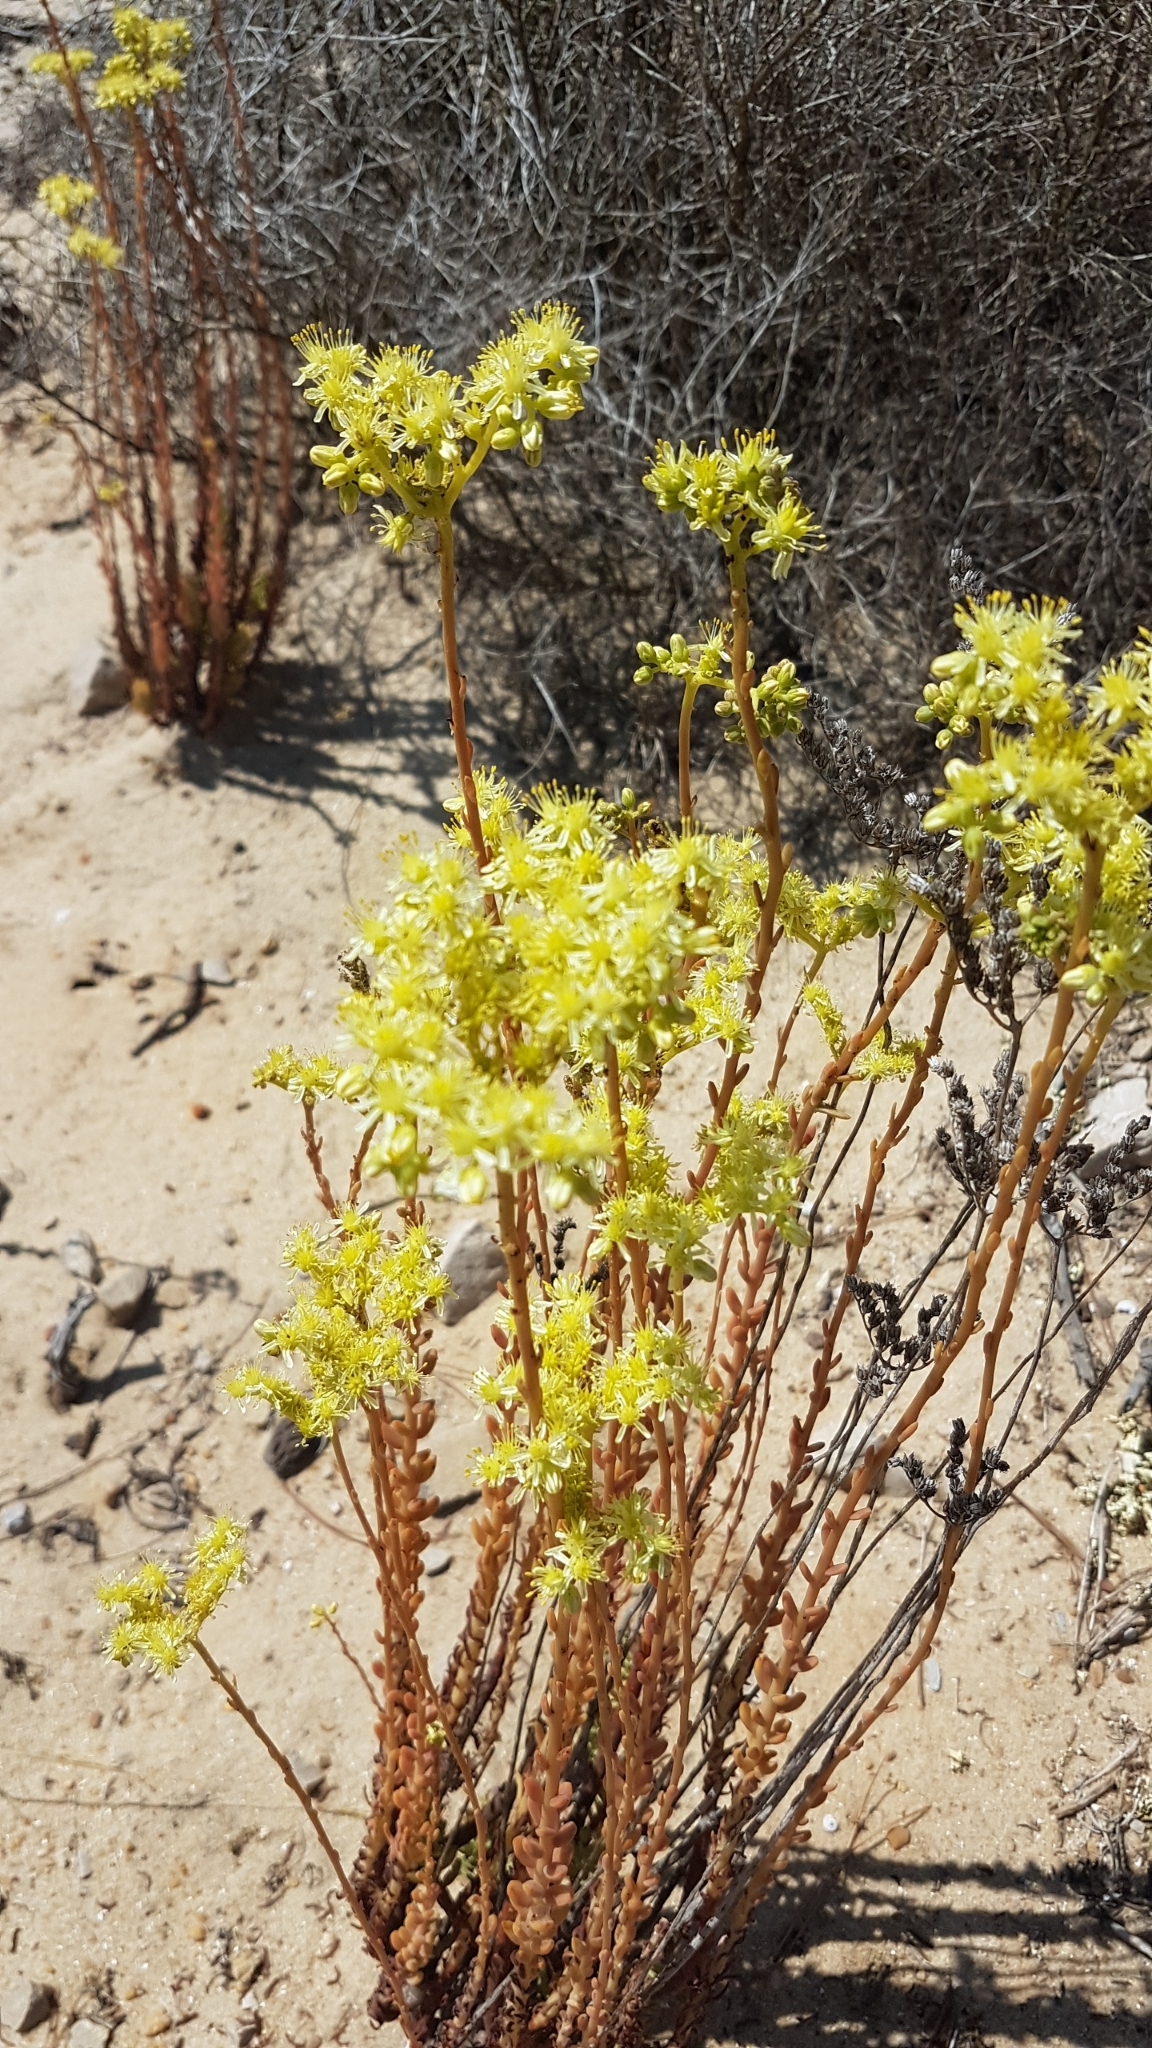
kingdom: Plantae
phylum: Tracheophyta
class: Magnoliopsida
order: Saxifragales
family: Crassulaceae
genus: Petrosedum
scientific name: Petrosedum sediforme
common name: Pale stonecrop
